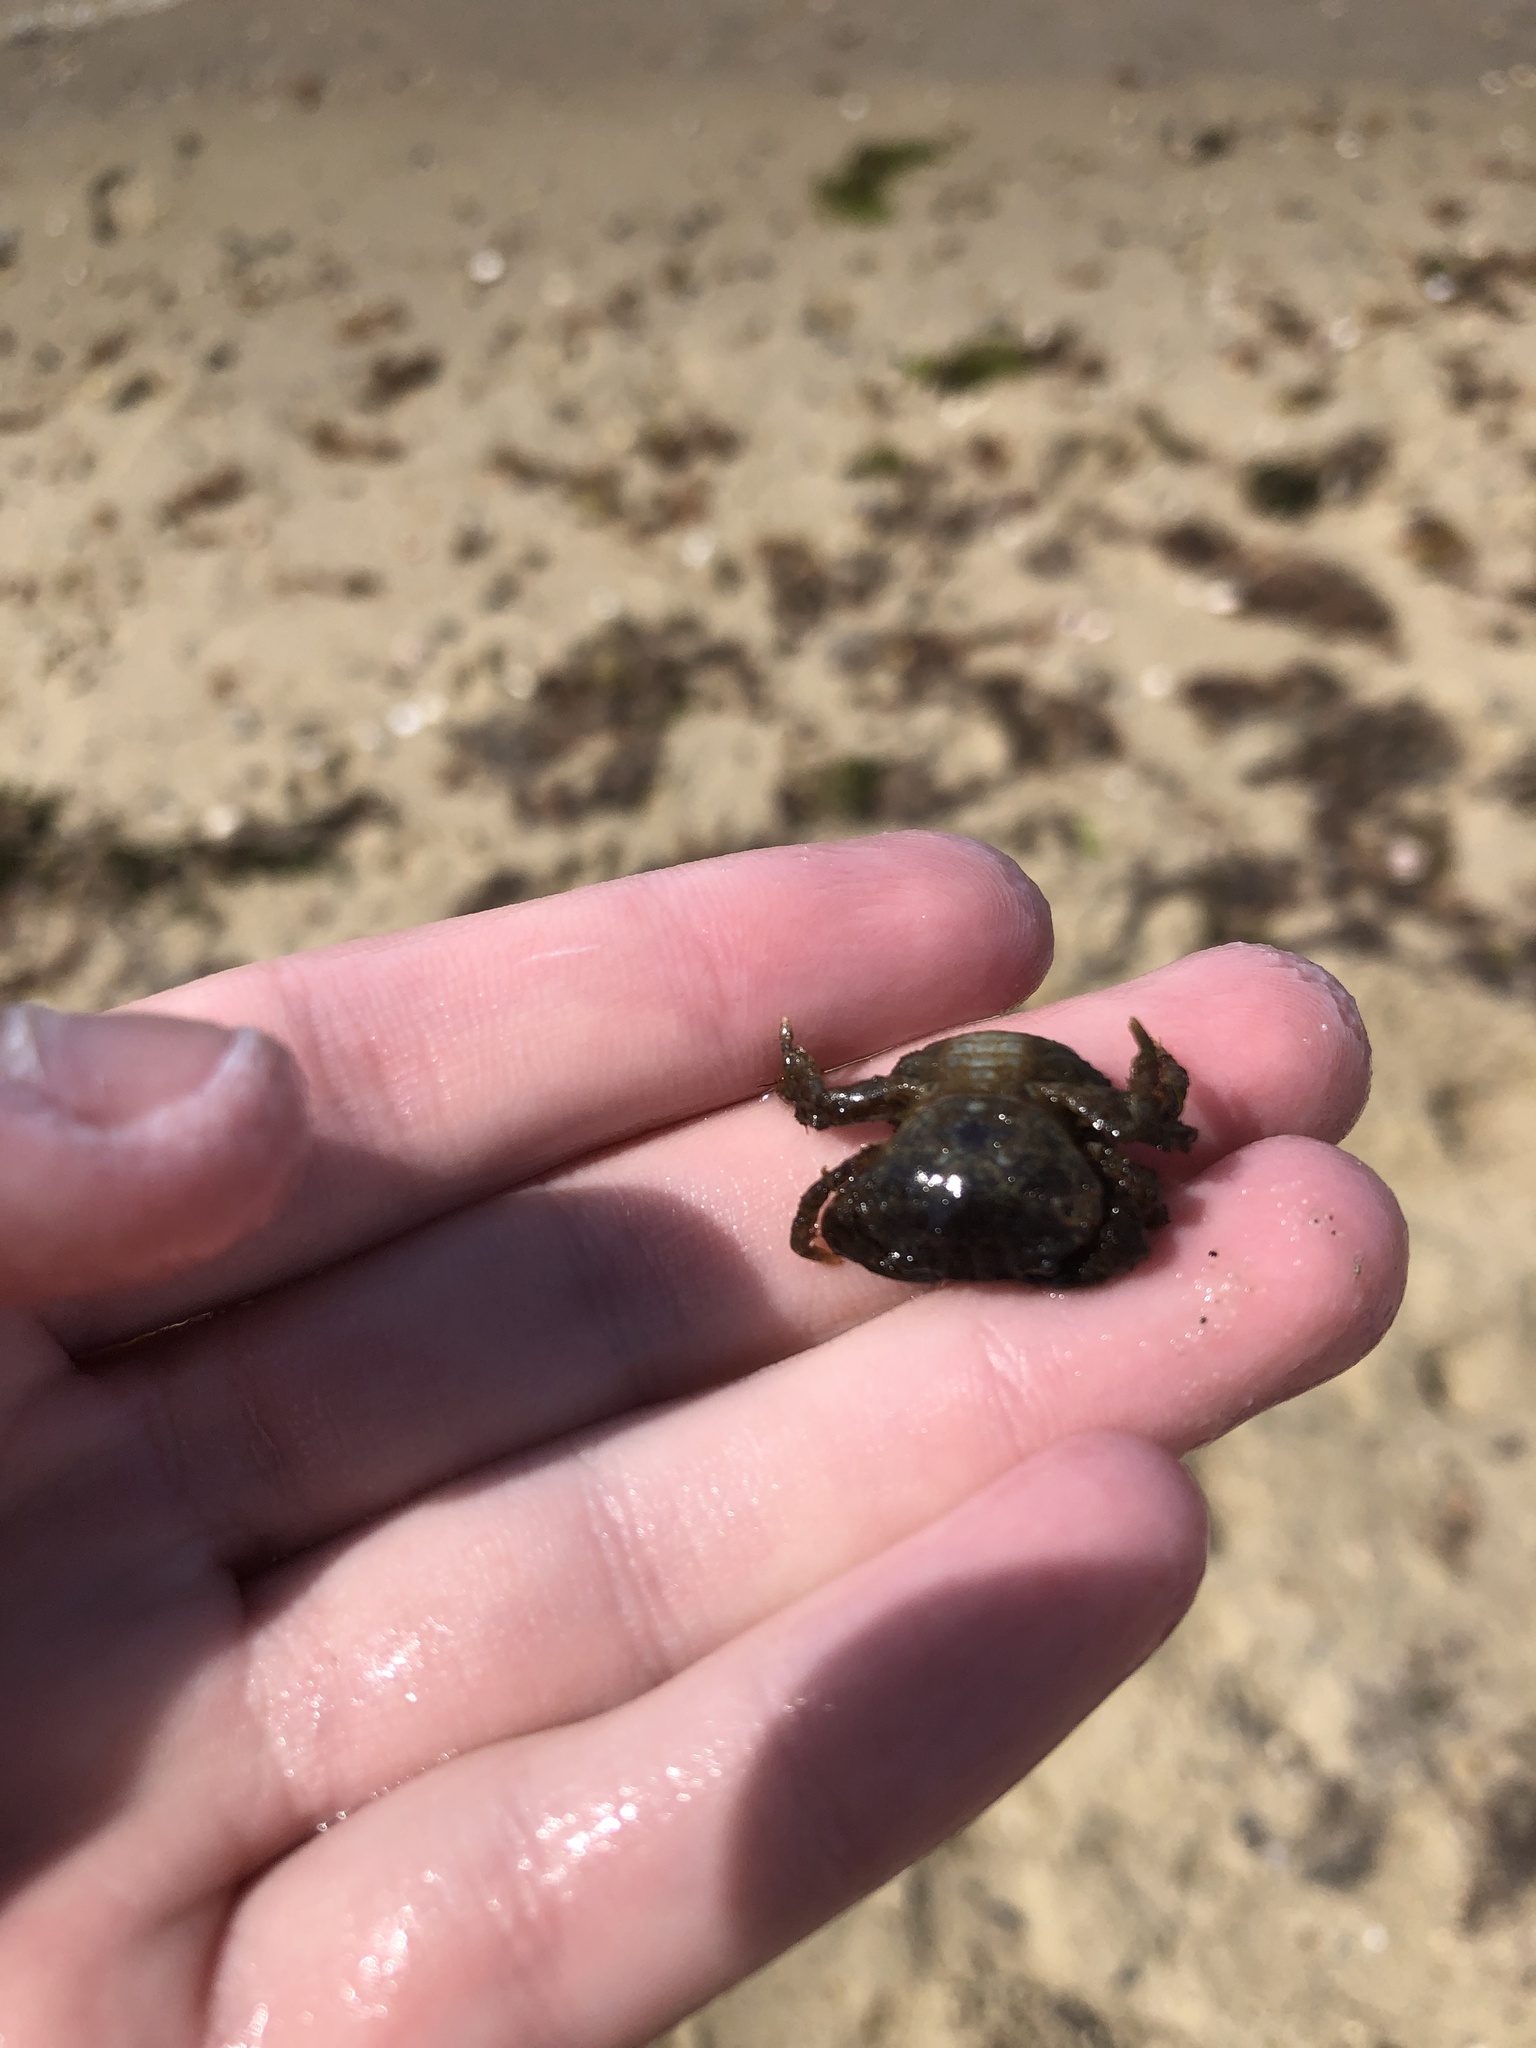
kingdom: Animalia
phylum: Arthropoda
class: Malacostraca
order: Decapoda
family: Panopeidae
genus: Dyspanopeus
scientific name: Dyspanopeus sayi
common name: Say mud crab
